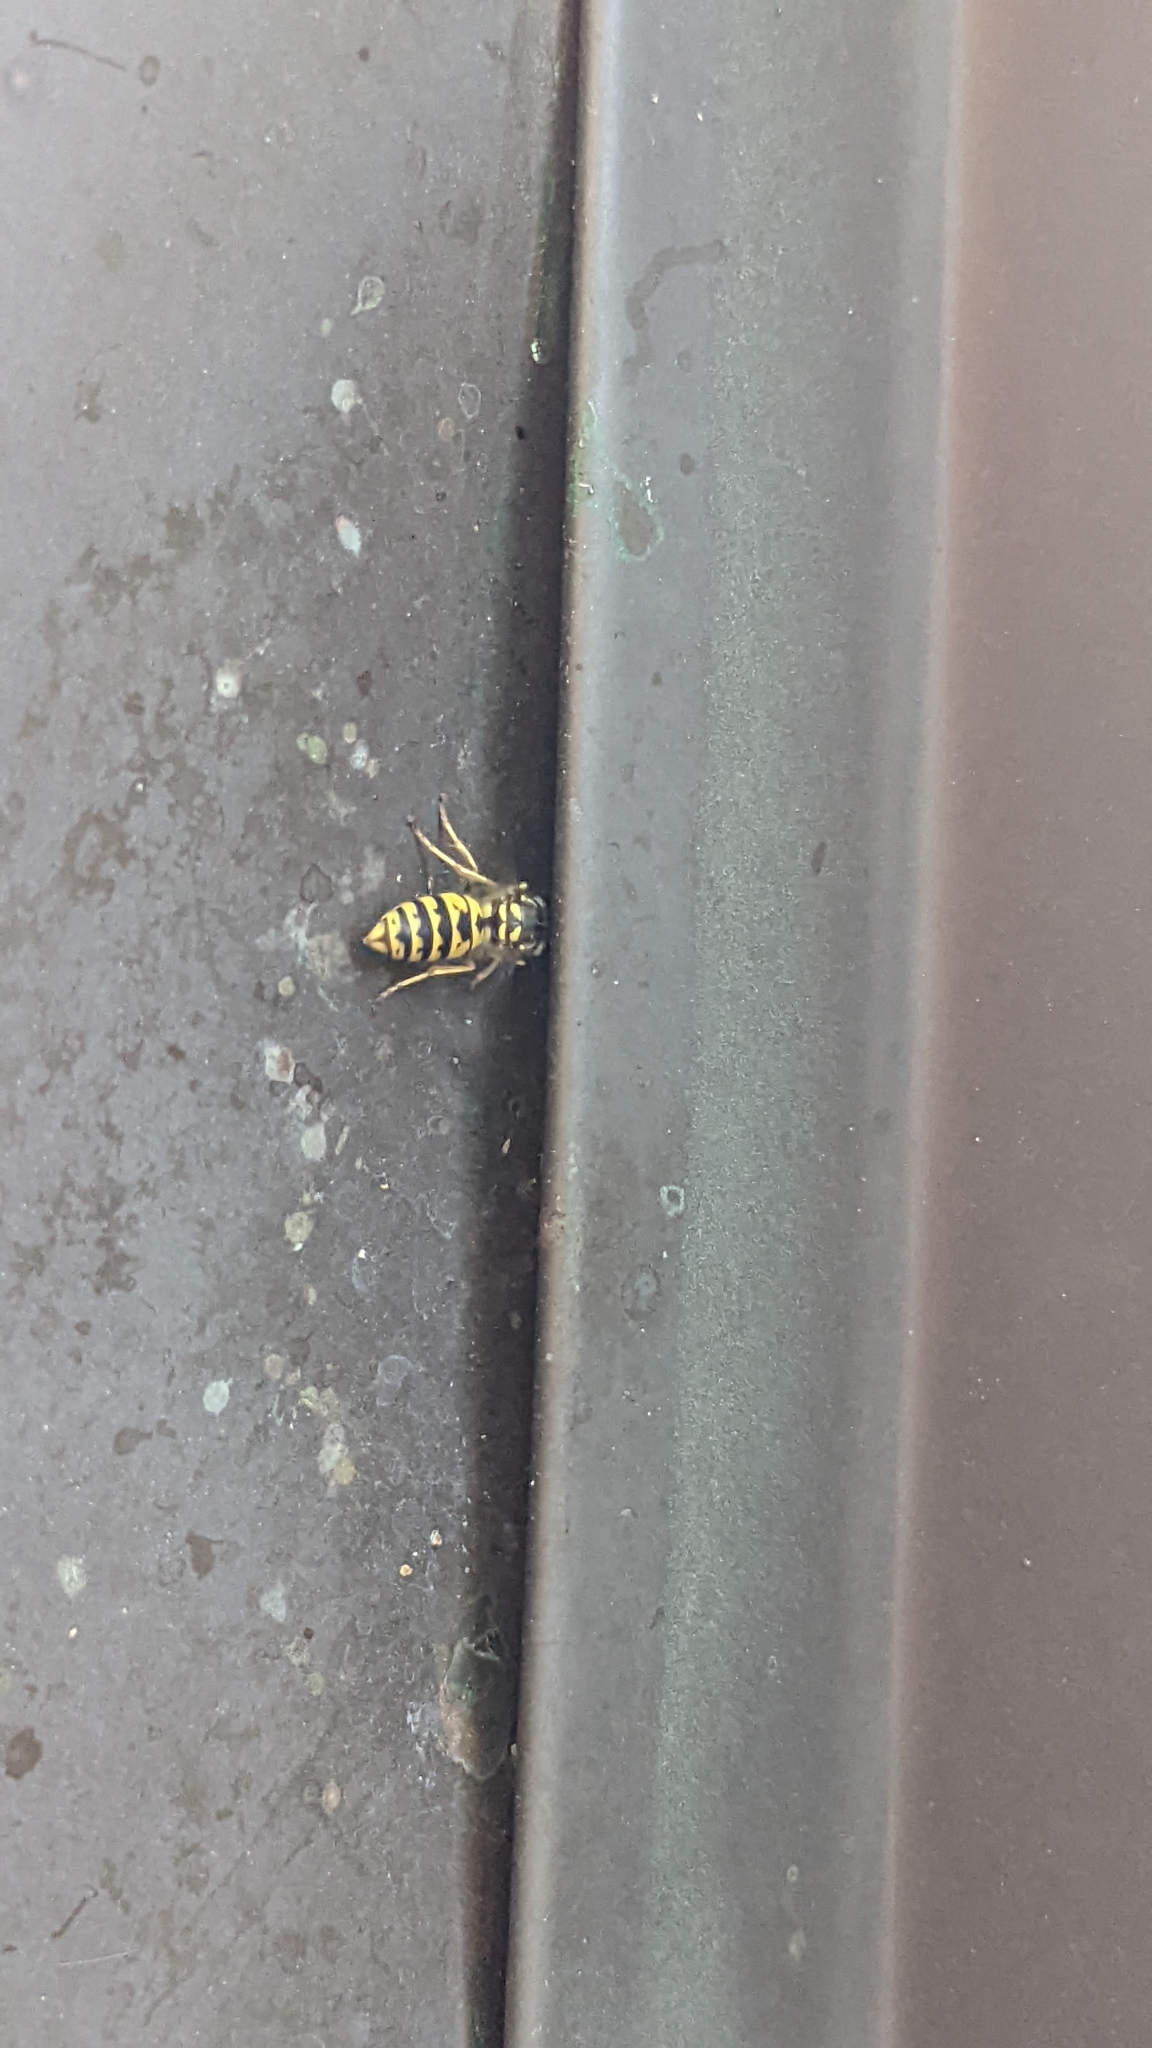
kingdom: Animalia
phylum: Arthropoda
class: Insecta
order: Hymenoptera
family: Vespidae
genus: Vespula
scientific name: Vespula vulgaris
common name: Common wasp
